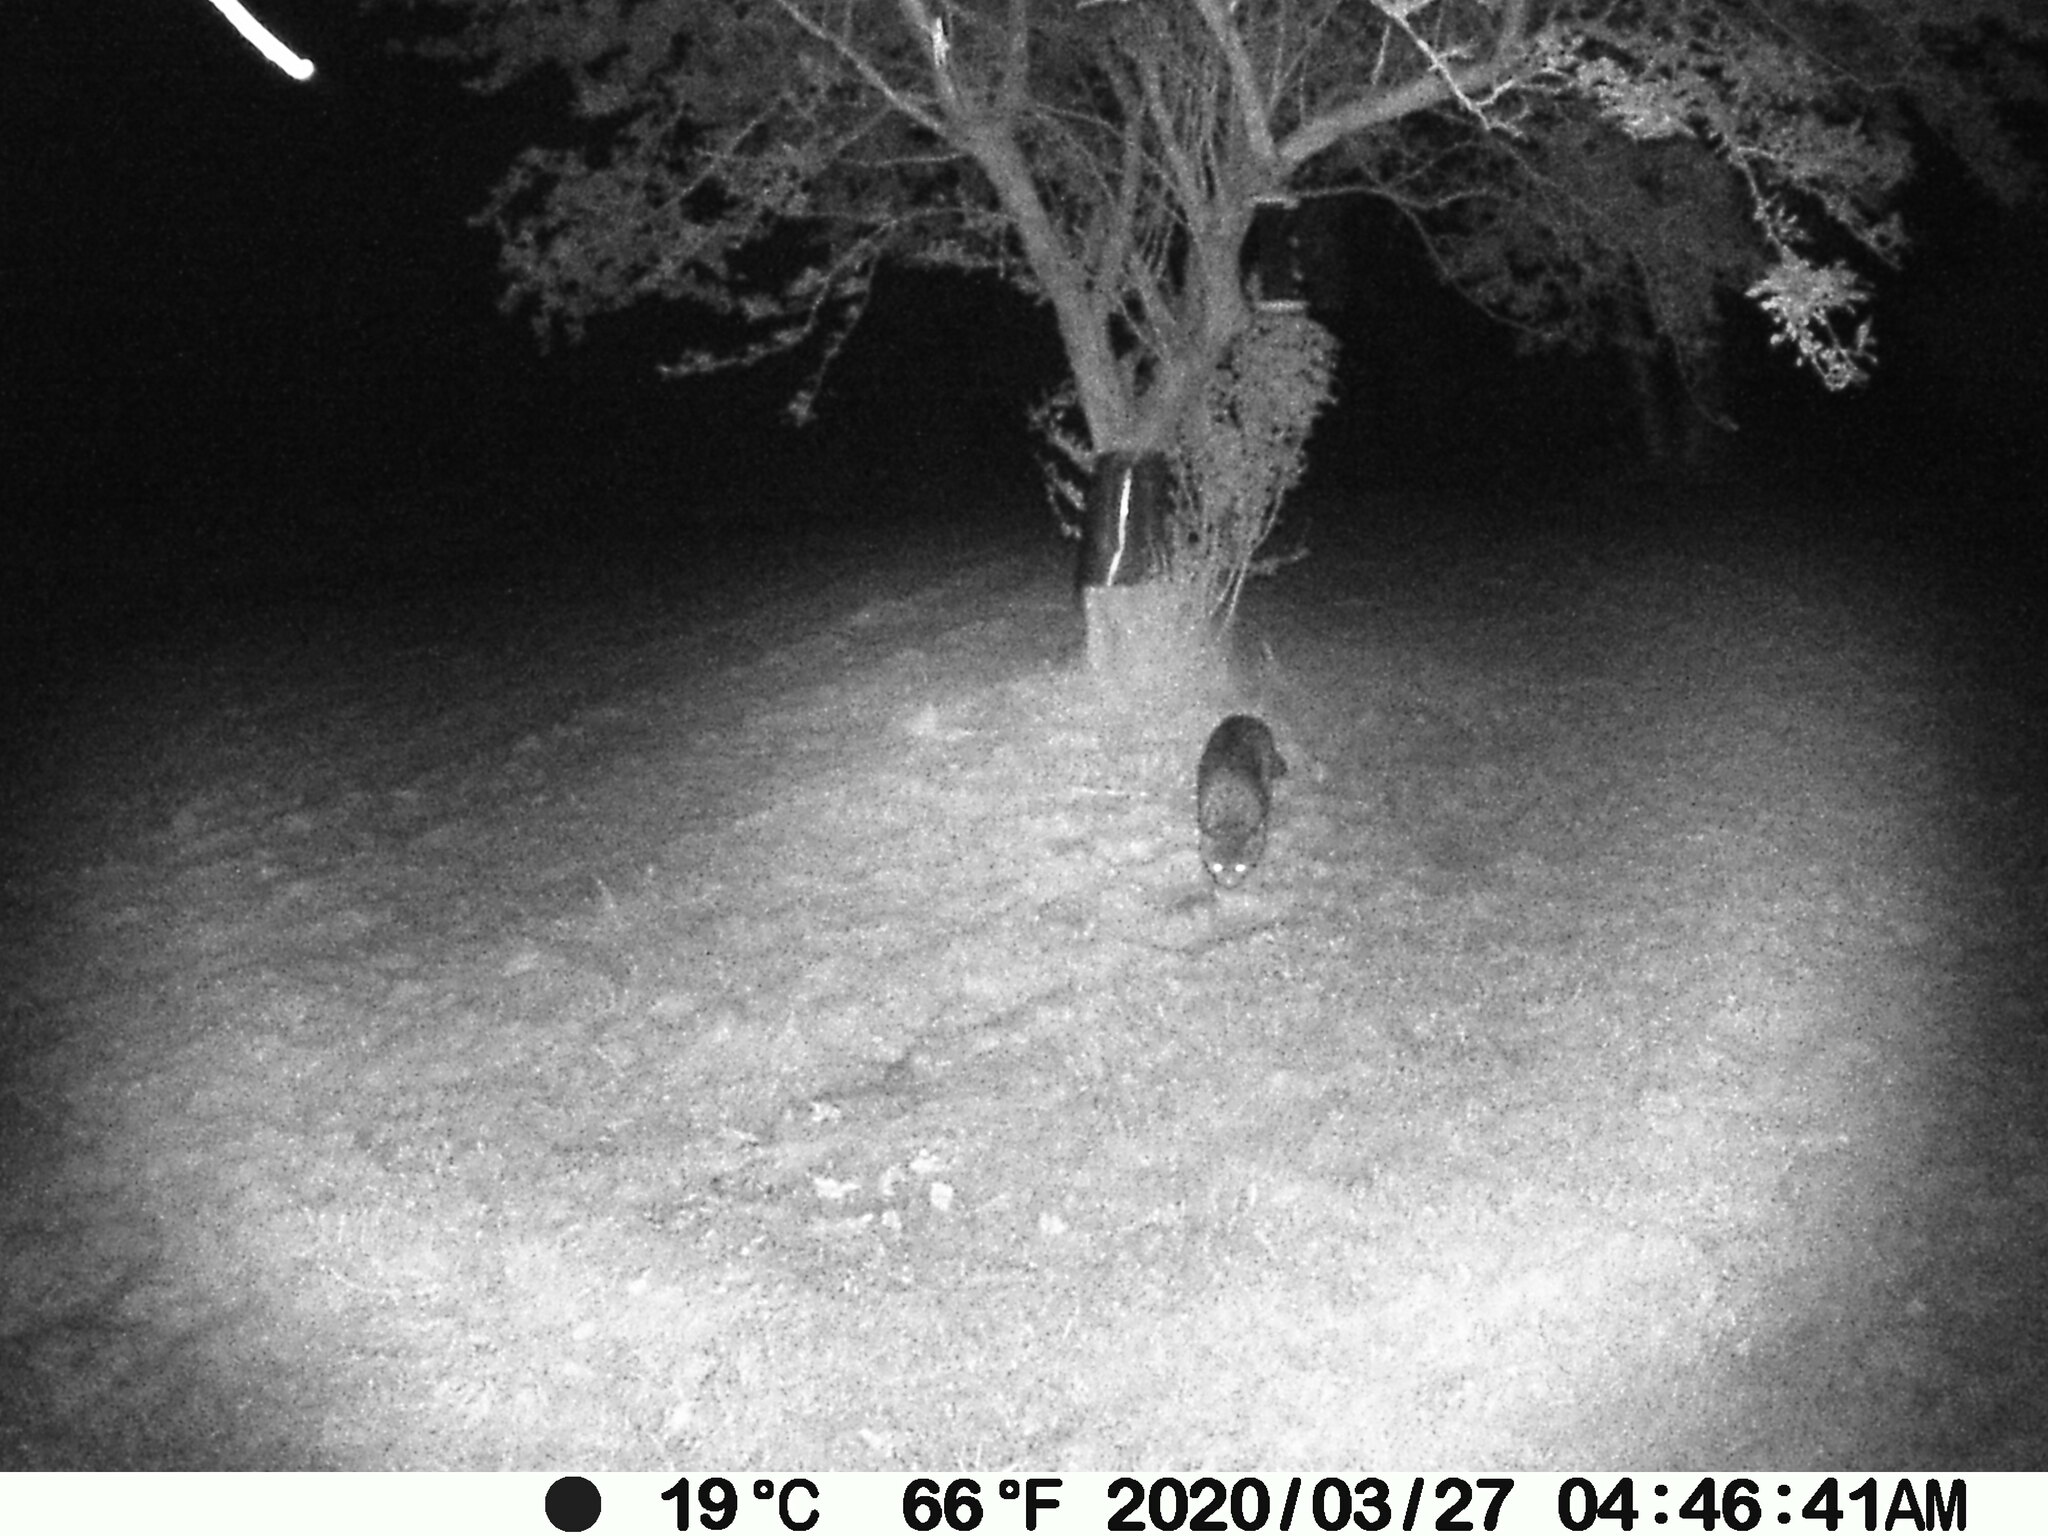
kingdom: Animalia
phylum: Chordata
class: Mammalia
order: Carnivora
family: Felidae
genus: Felis
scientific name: Felis catus
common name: Domestic cat
